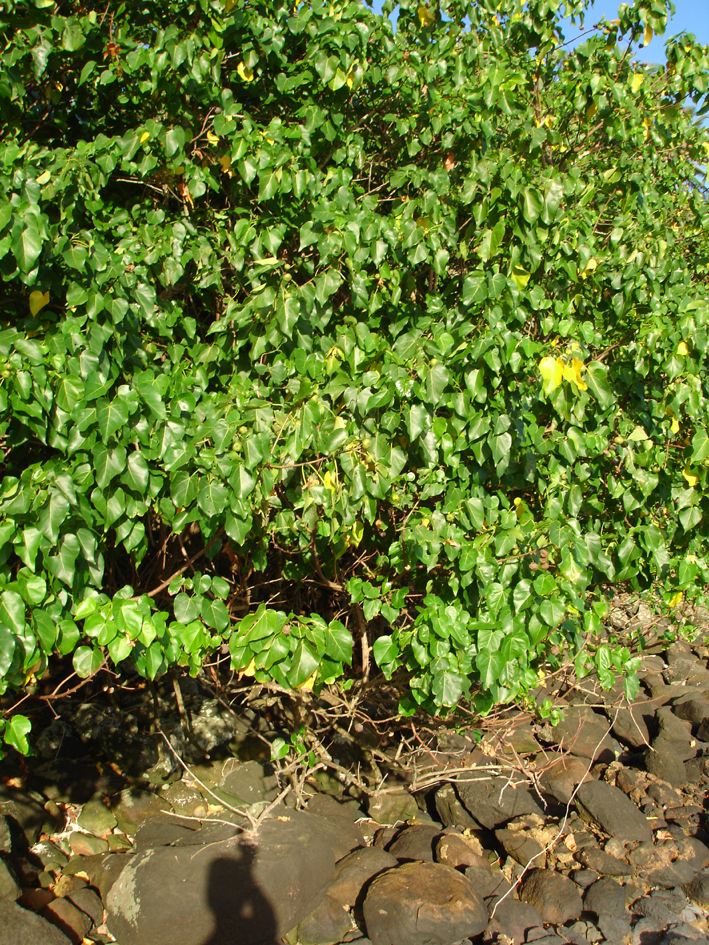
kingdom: Plantae
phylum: Tracheophyta
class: Magnoliopsida
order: Malvales
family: Malvaceae
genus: Thespesia
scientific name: Thespesia populnea
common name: Seaside mahoe
